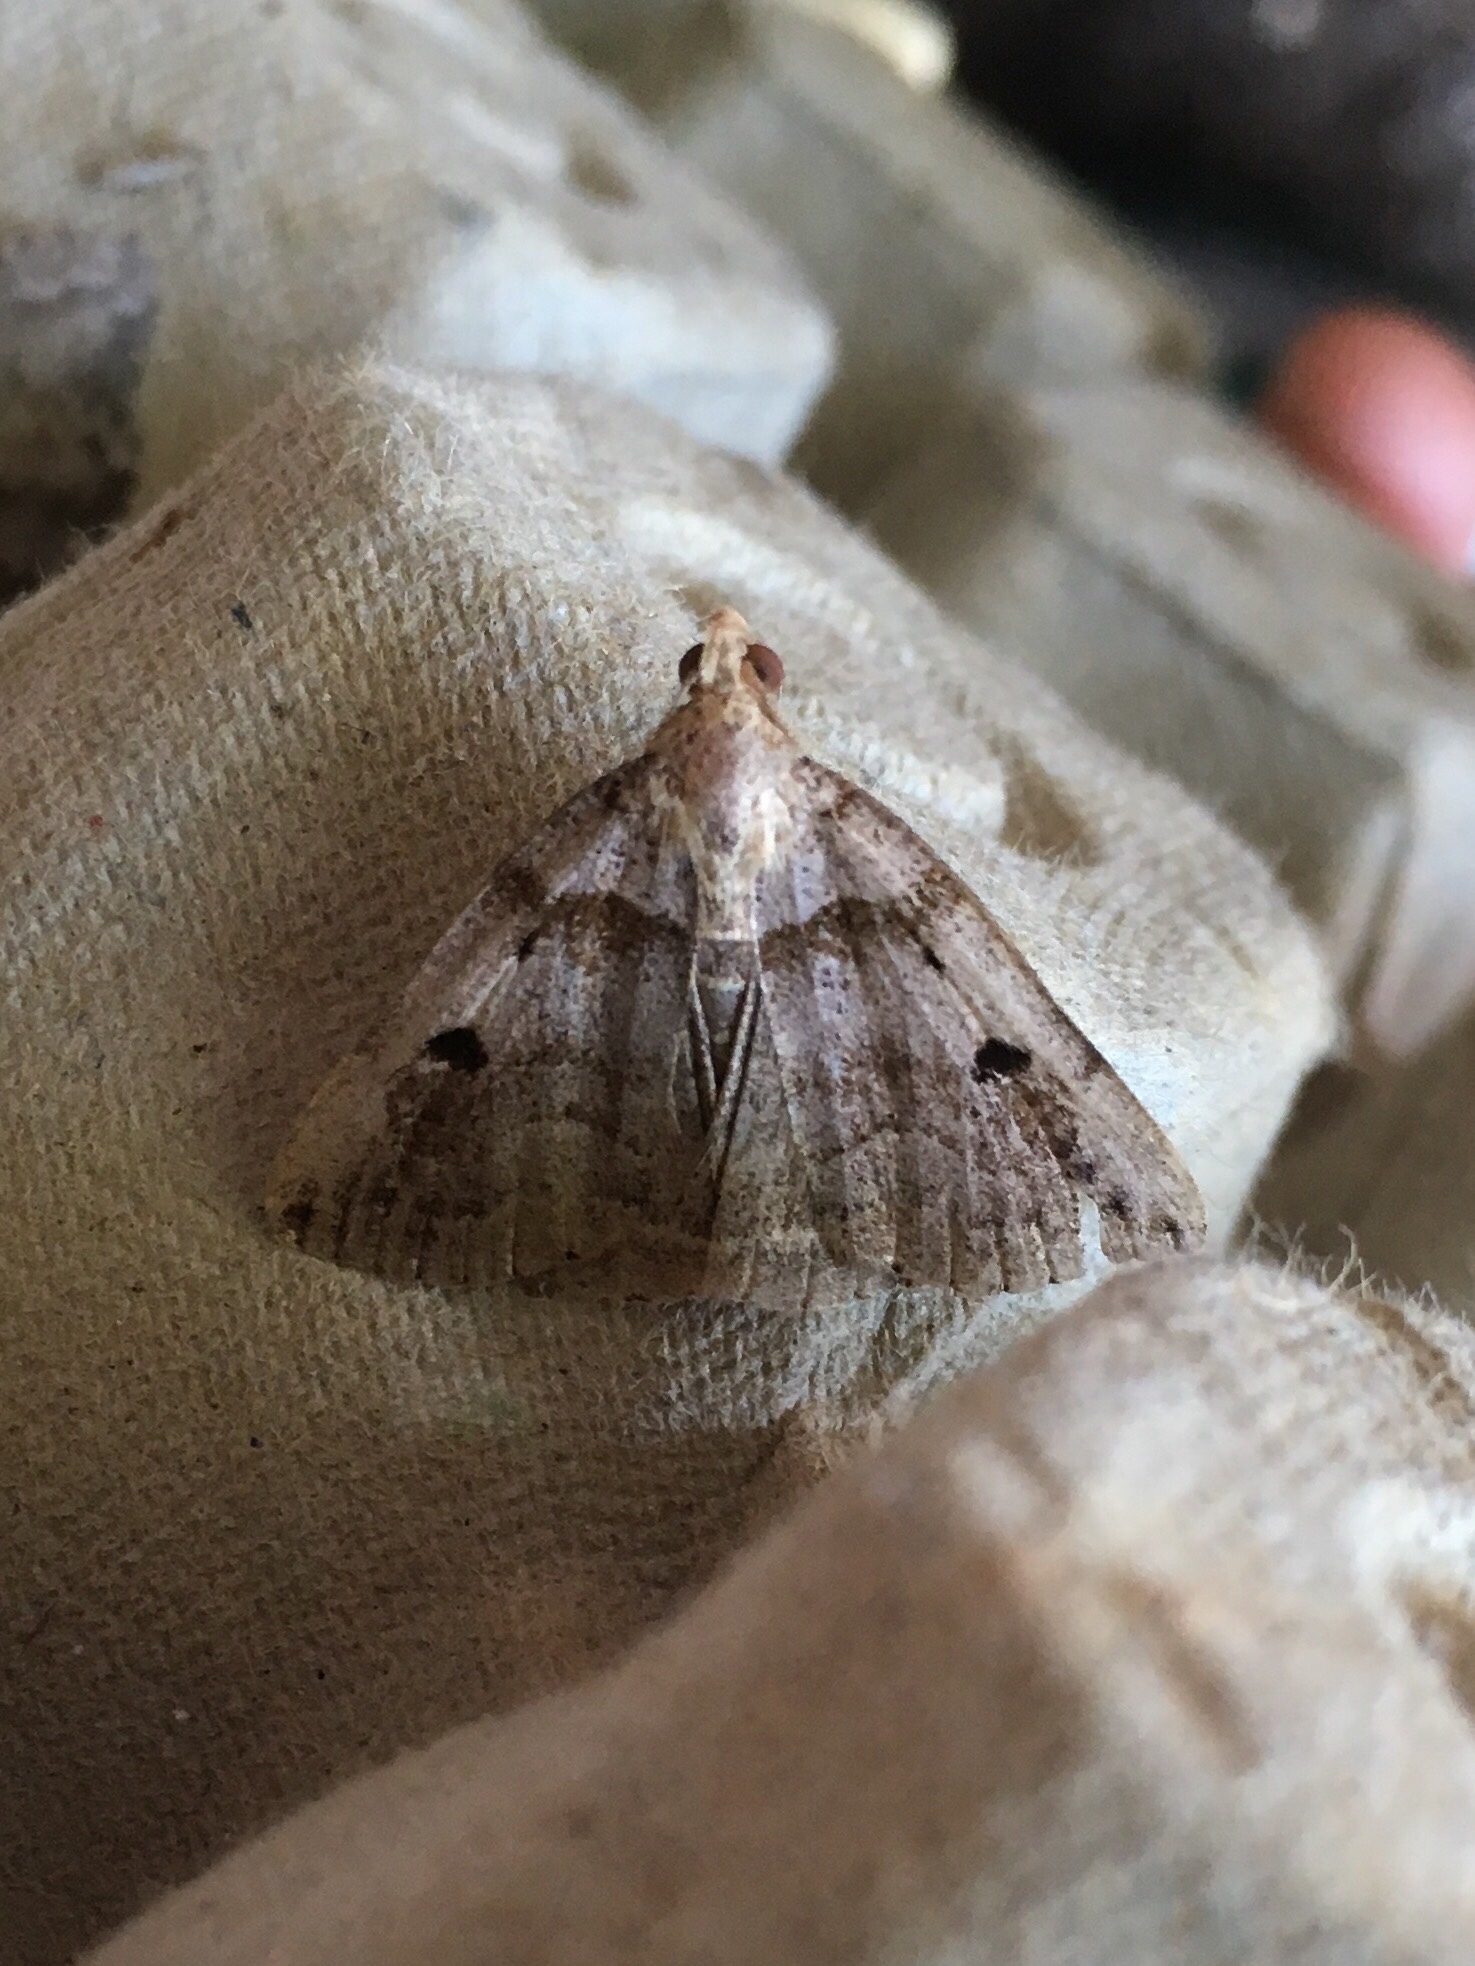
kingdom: Animalia
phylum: Arthropoda
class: Insecta
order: Lepidoptera
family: Erebidae
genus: Zanclognatha
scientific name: Zanclognatha laevigata
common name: Variable fan-foot
